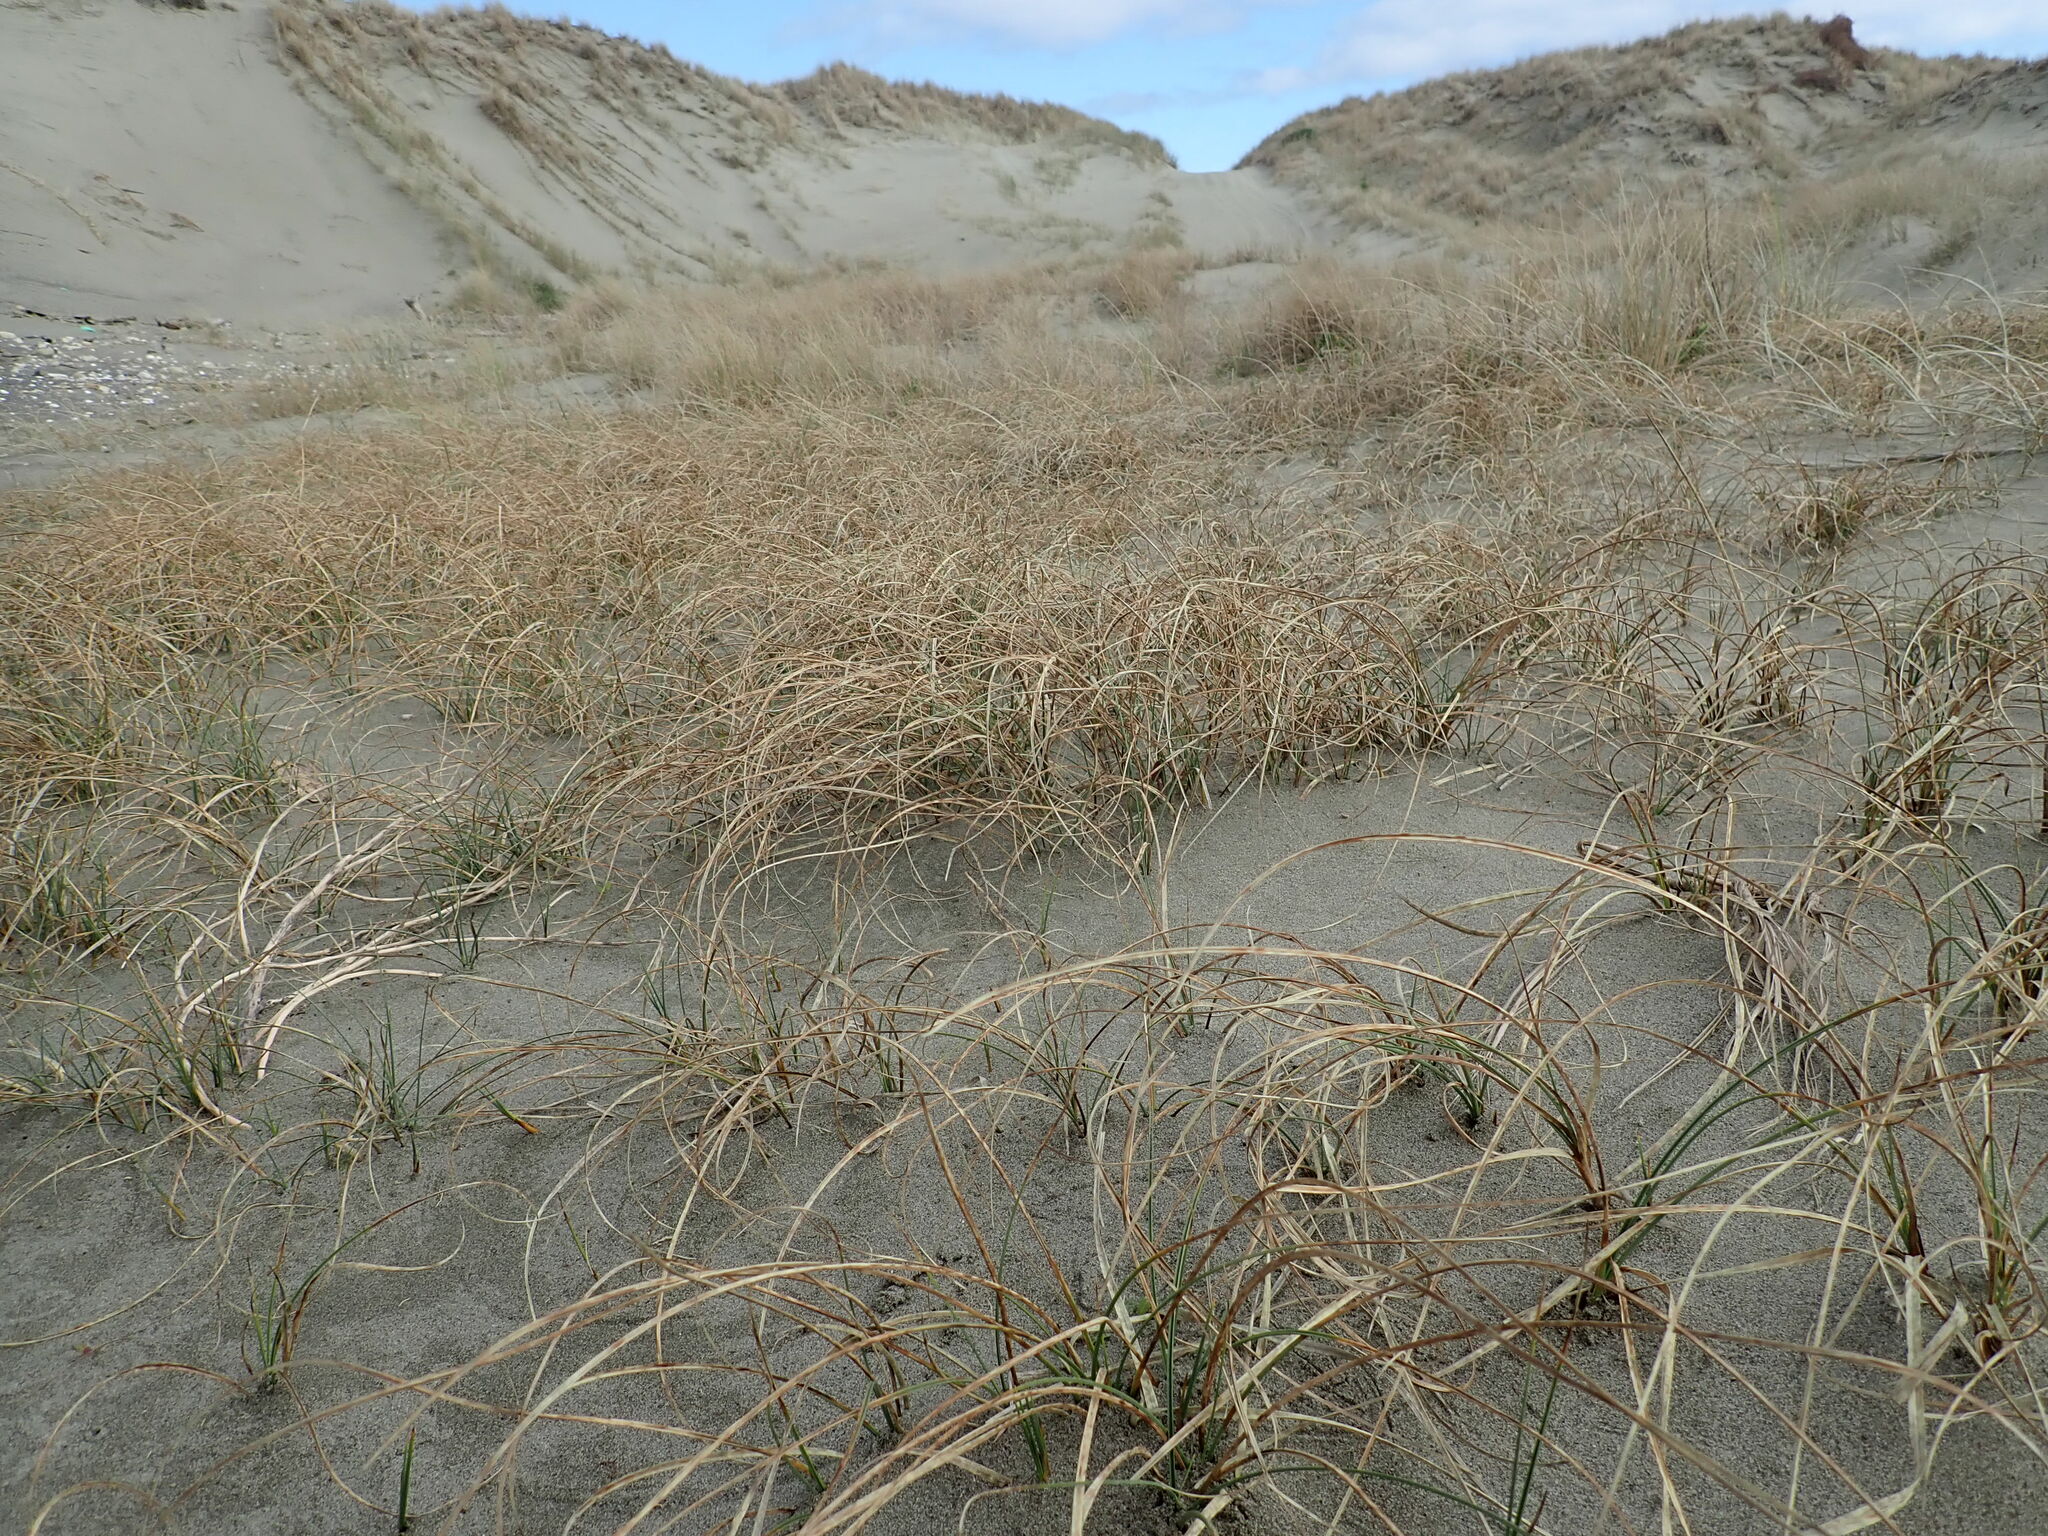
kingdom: Plantae
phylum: Tracheophyta
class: Liliopsida
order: Poales
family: Cyperaceae
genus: Carex
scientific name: Carex pumila
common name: Dwarf sedge
